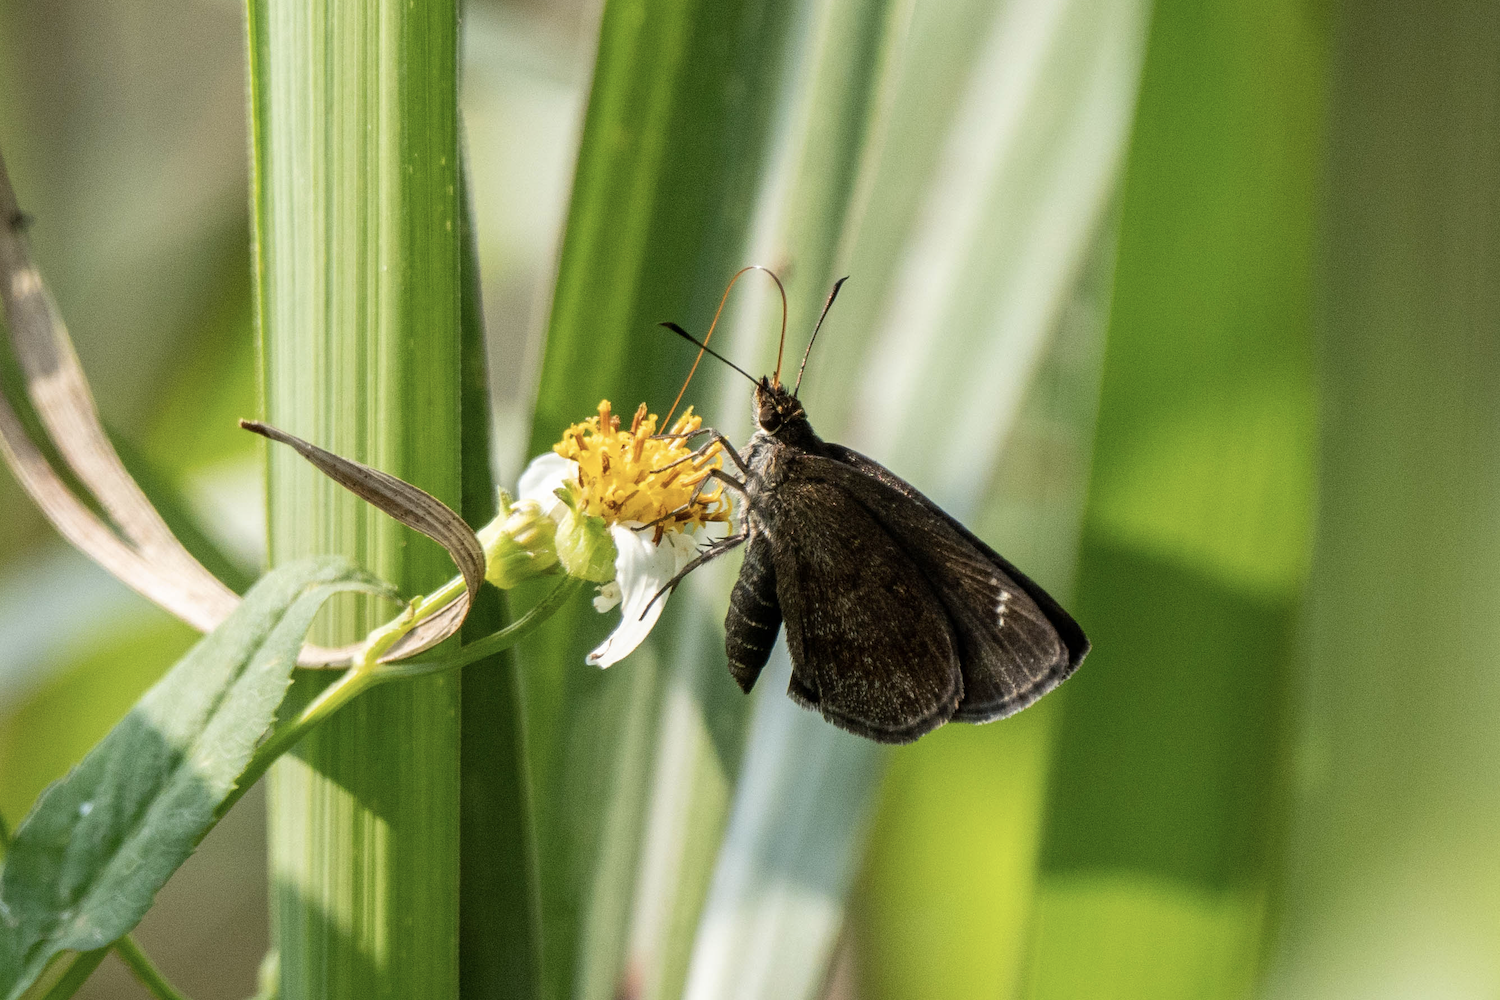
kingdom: Animalia
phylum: Arthropoda
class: Insecta
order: Lepidoptera
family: Hesperiidae
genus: Astictopterus
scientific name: Astictopterus jama
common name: Forest hopper
